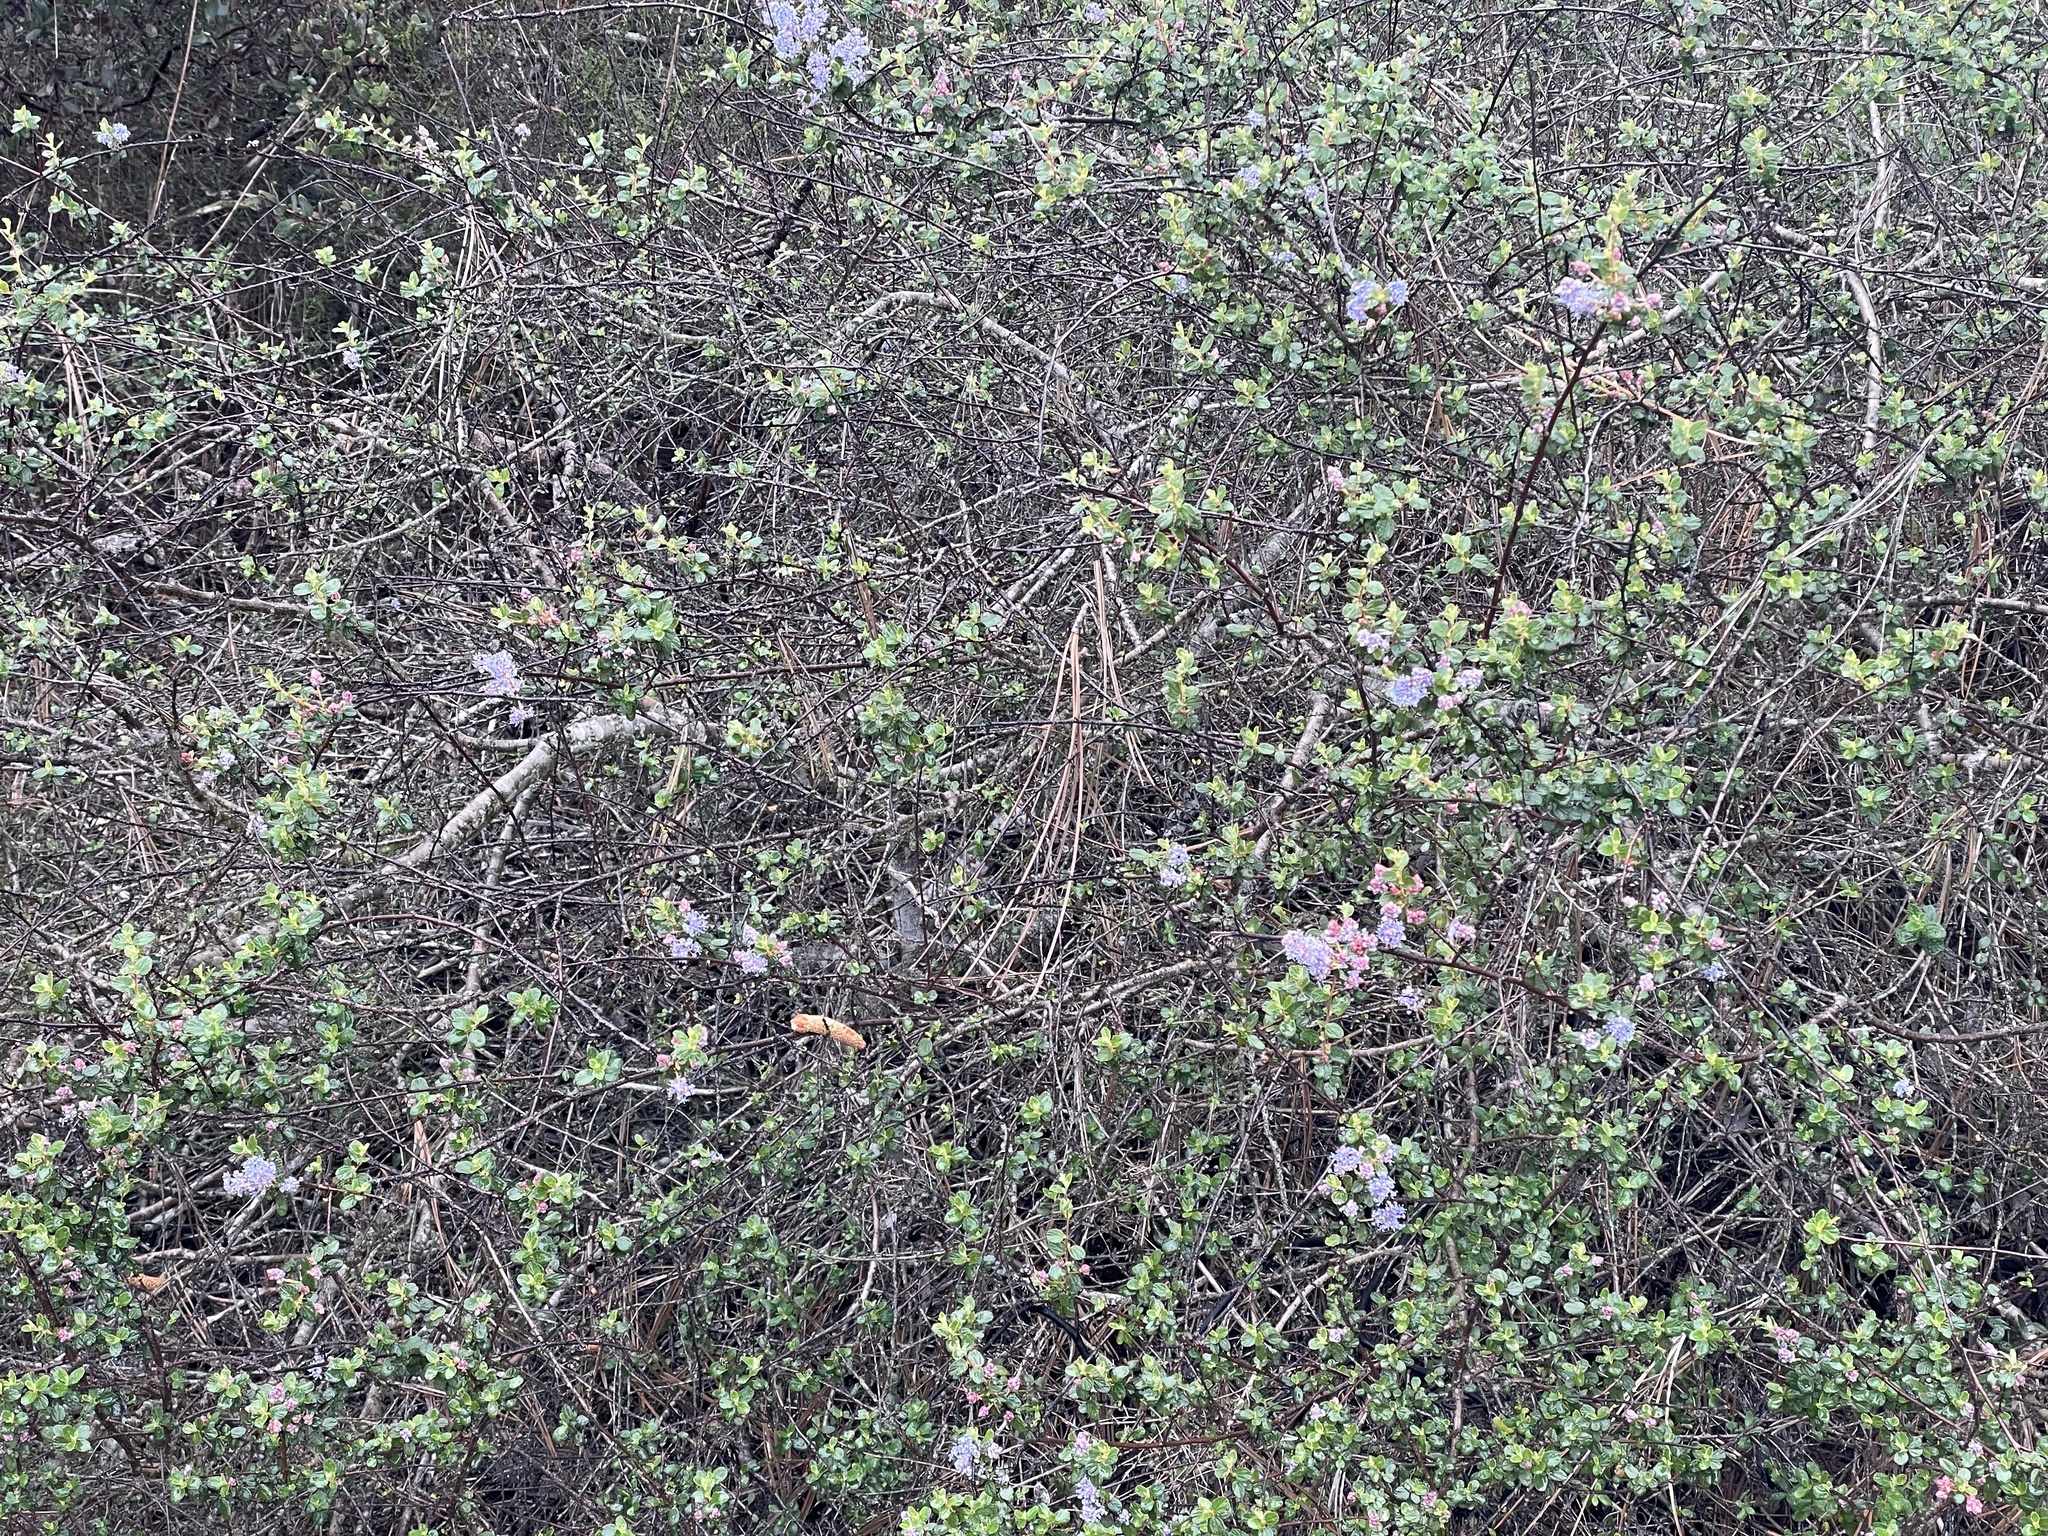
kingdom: Plantae
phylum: Tracheophyta
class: Magnoliopsida
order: Rosales
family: Rhamnaceae
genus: Ceanothus
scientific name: Ceanothus tomentosus
